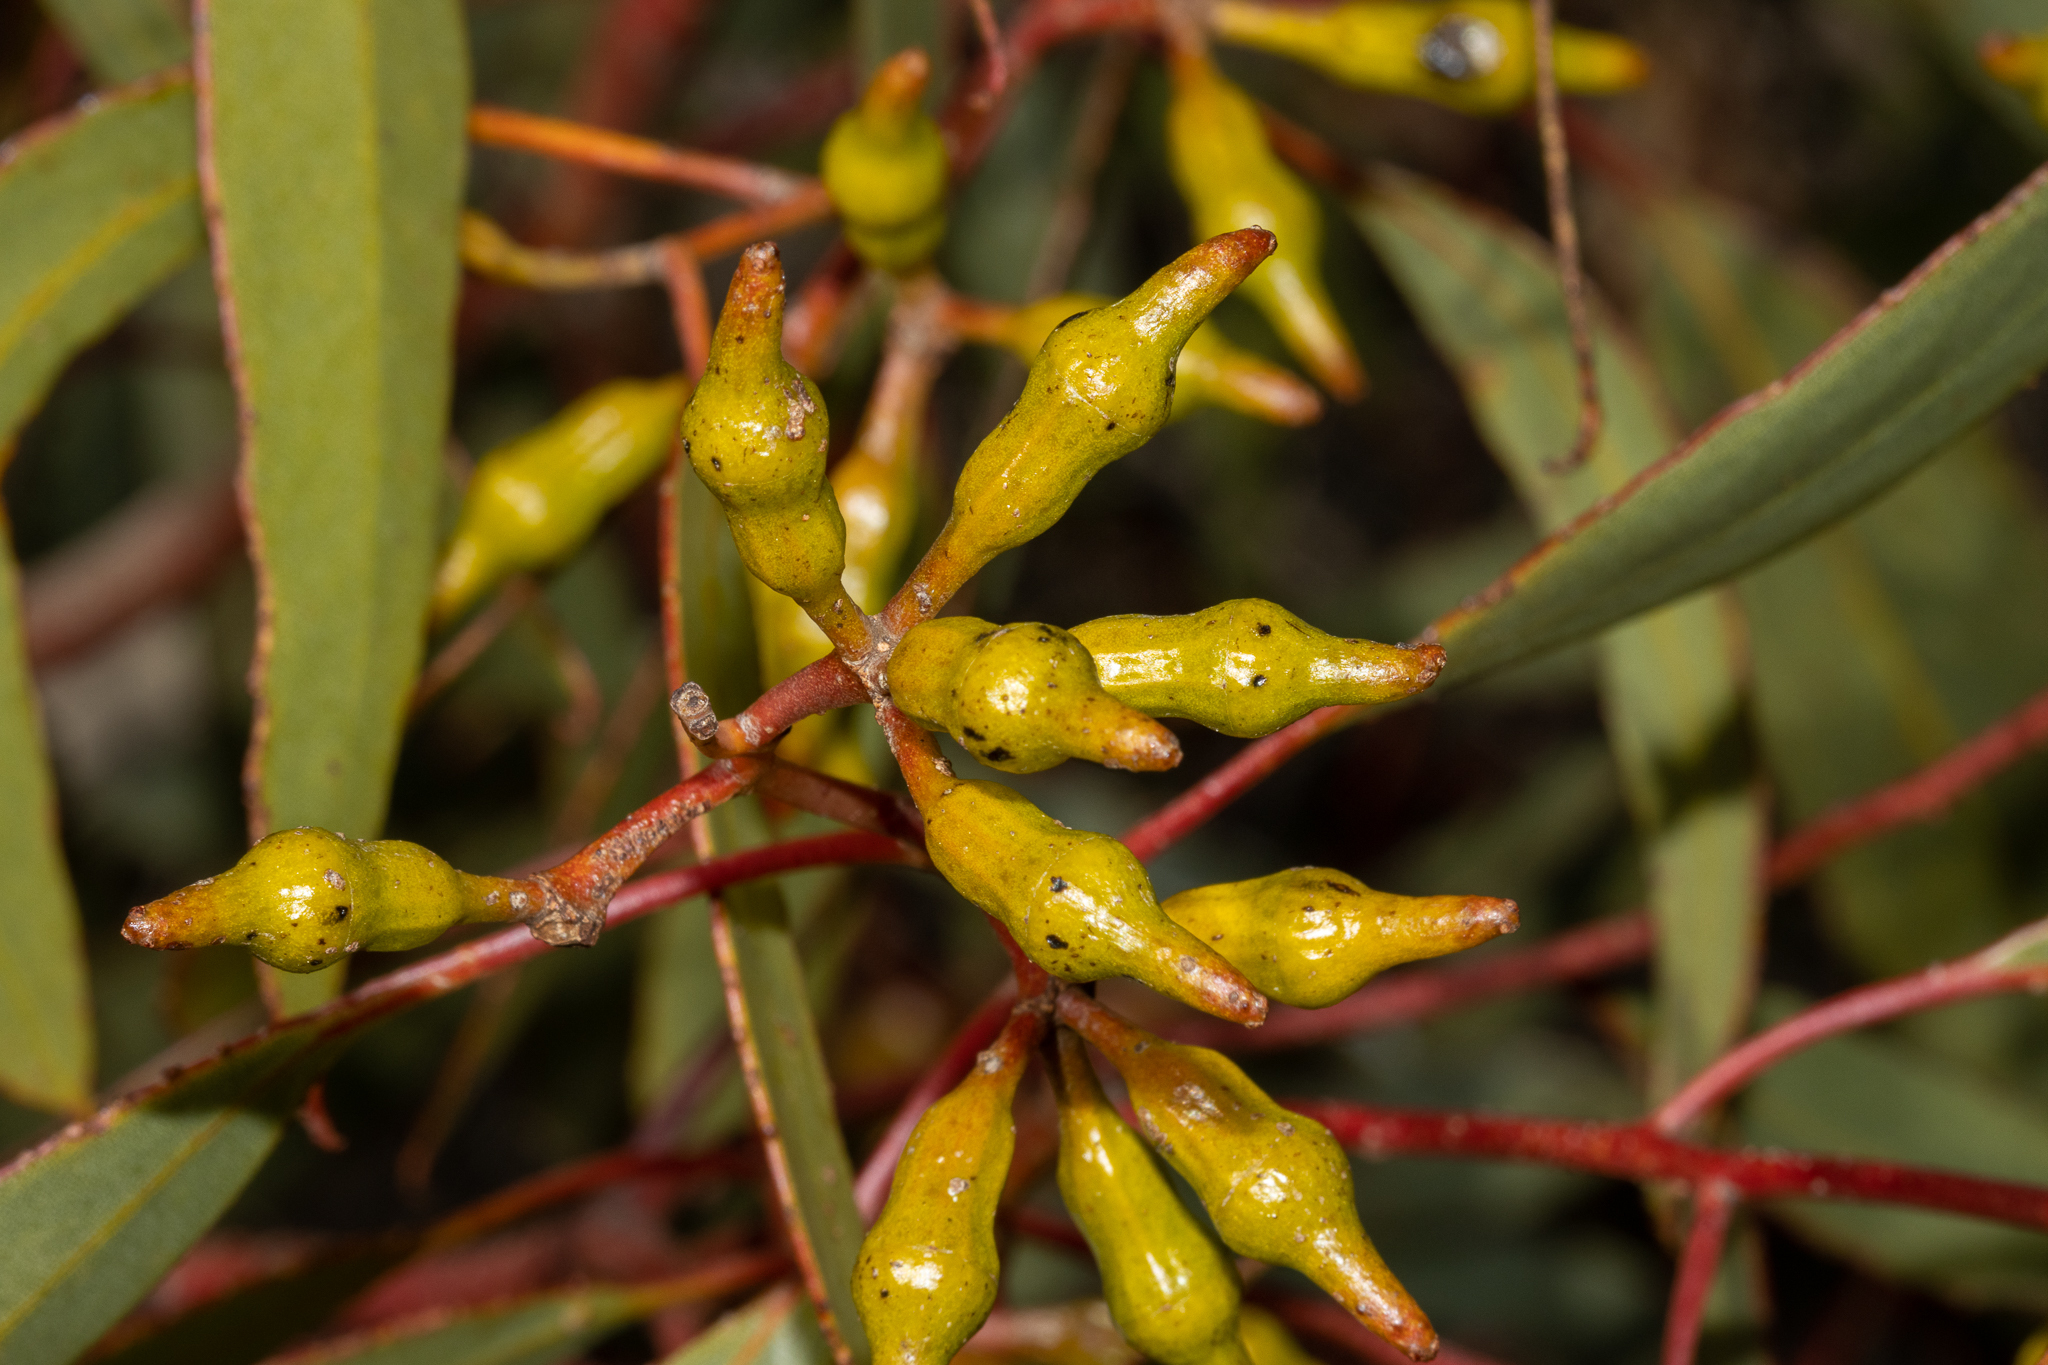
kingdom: Plantae
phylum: Tracheophyta
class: Magnoliopsida
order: Myrtales
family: Myrtaceae
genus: Eucalyptus
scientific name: Eucalyptus incrassata
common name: Ridge-fruit mallee
